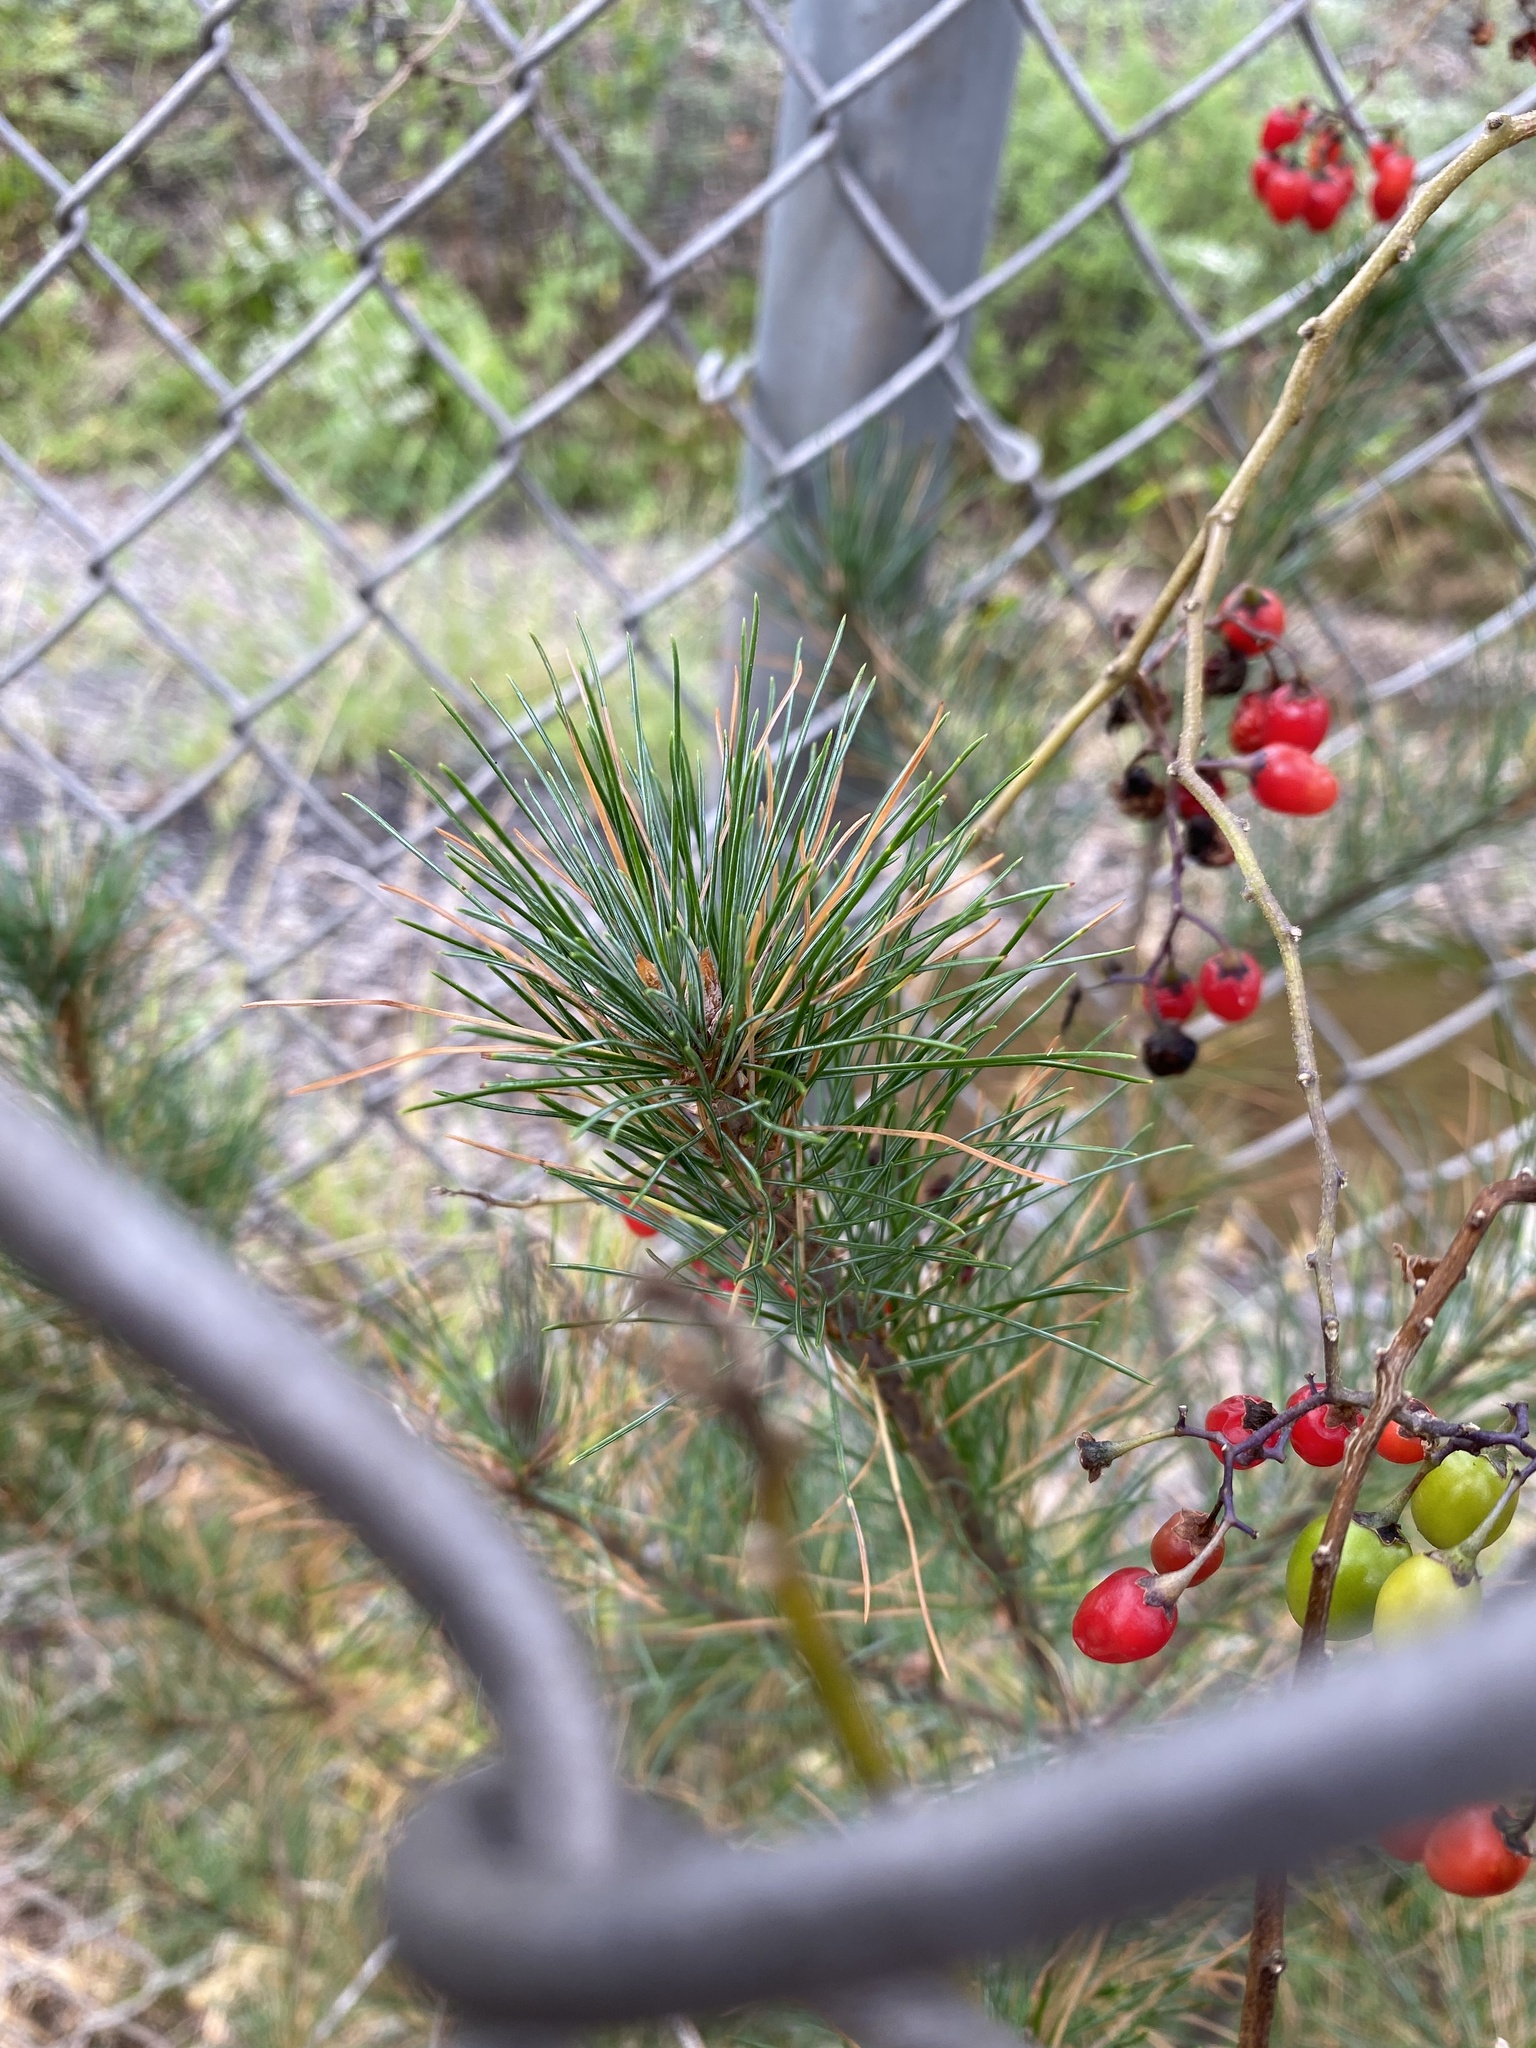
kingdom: Plantae
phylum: Tracheophyta
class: Pinopsida
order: Pinales
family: Pinaceae
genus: Pinus
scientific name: Pinus strobus
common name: Weymouth pine
